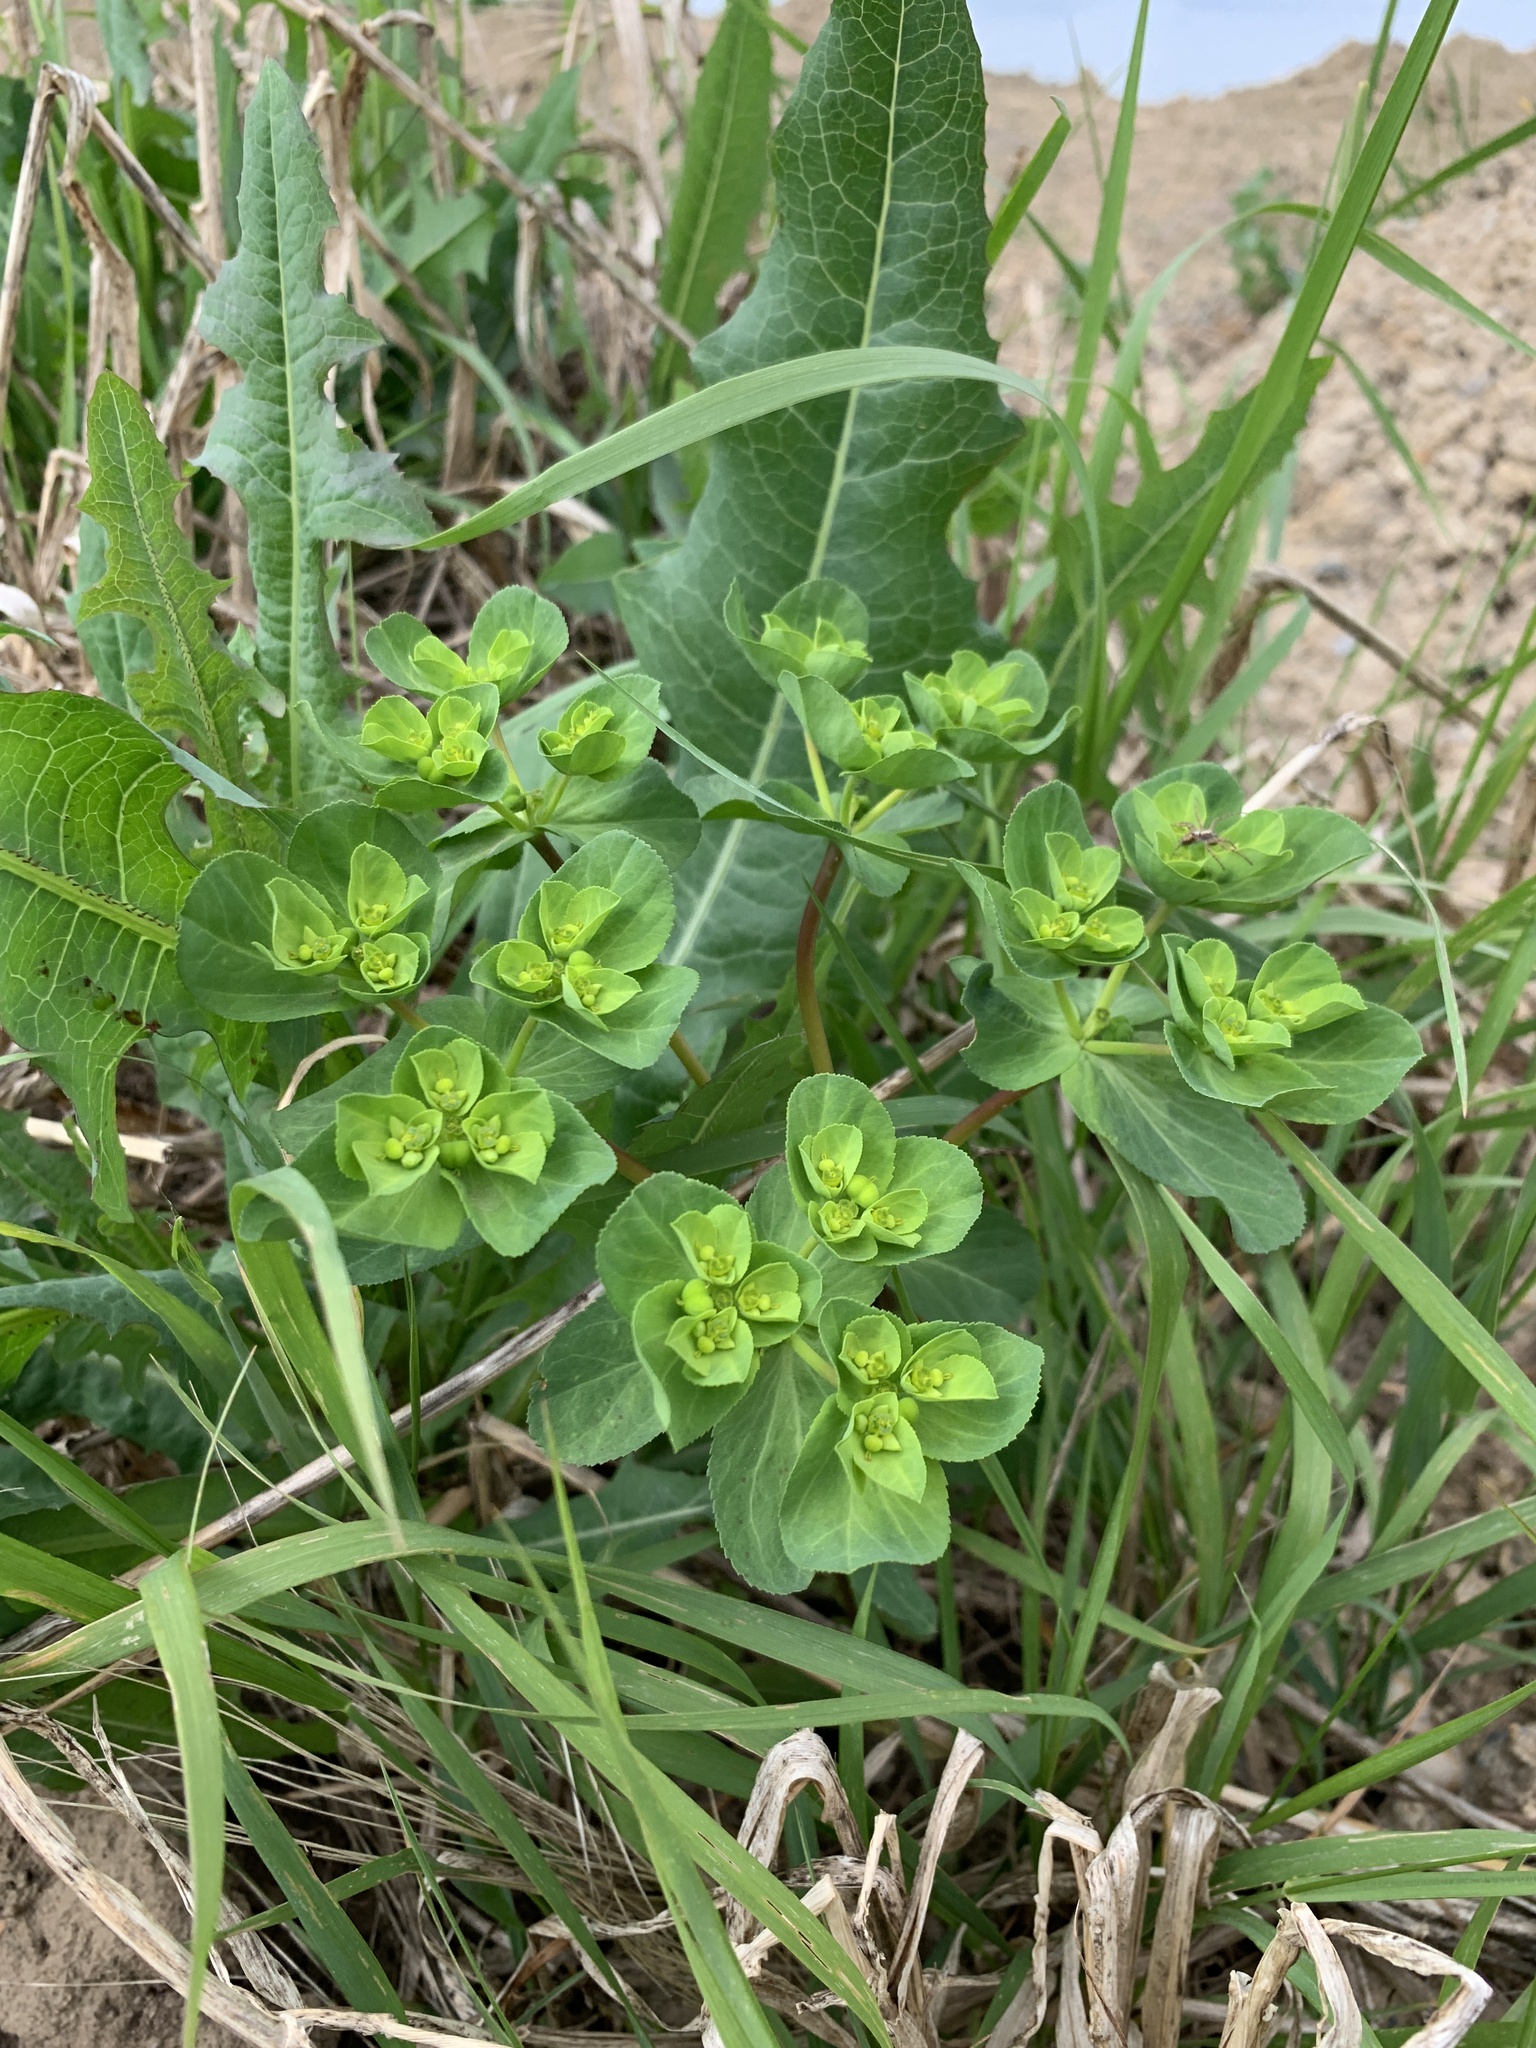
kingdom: Plantae
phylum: Tracheophyta
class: Magnoliopsida
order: Malpighiales
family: Euphorbiaceae
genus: Euphorbia
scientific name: Euphorbia helioscopia
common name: Sun spurge
